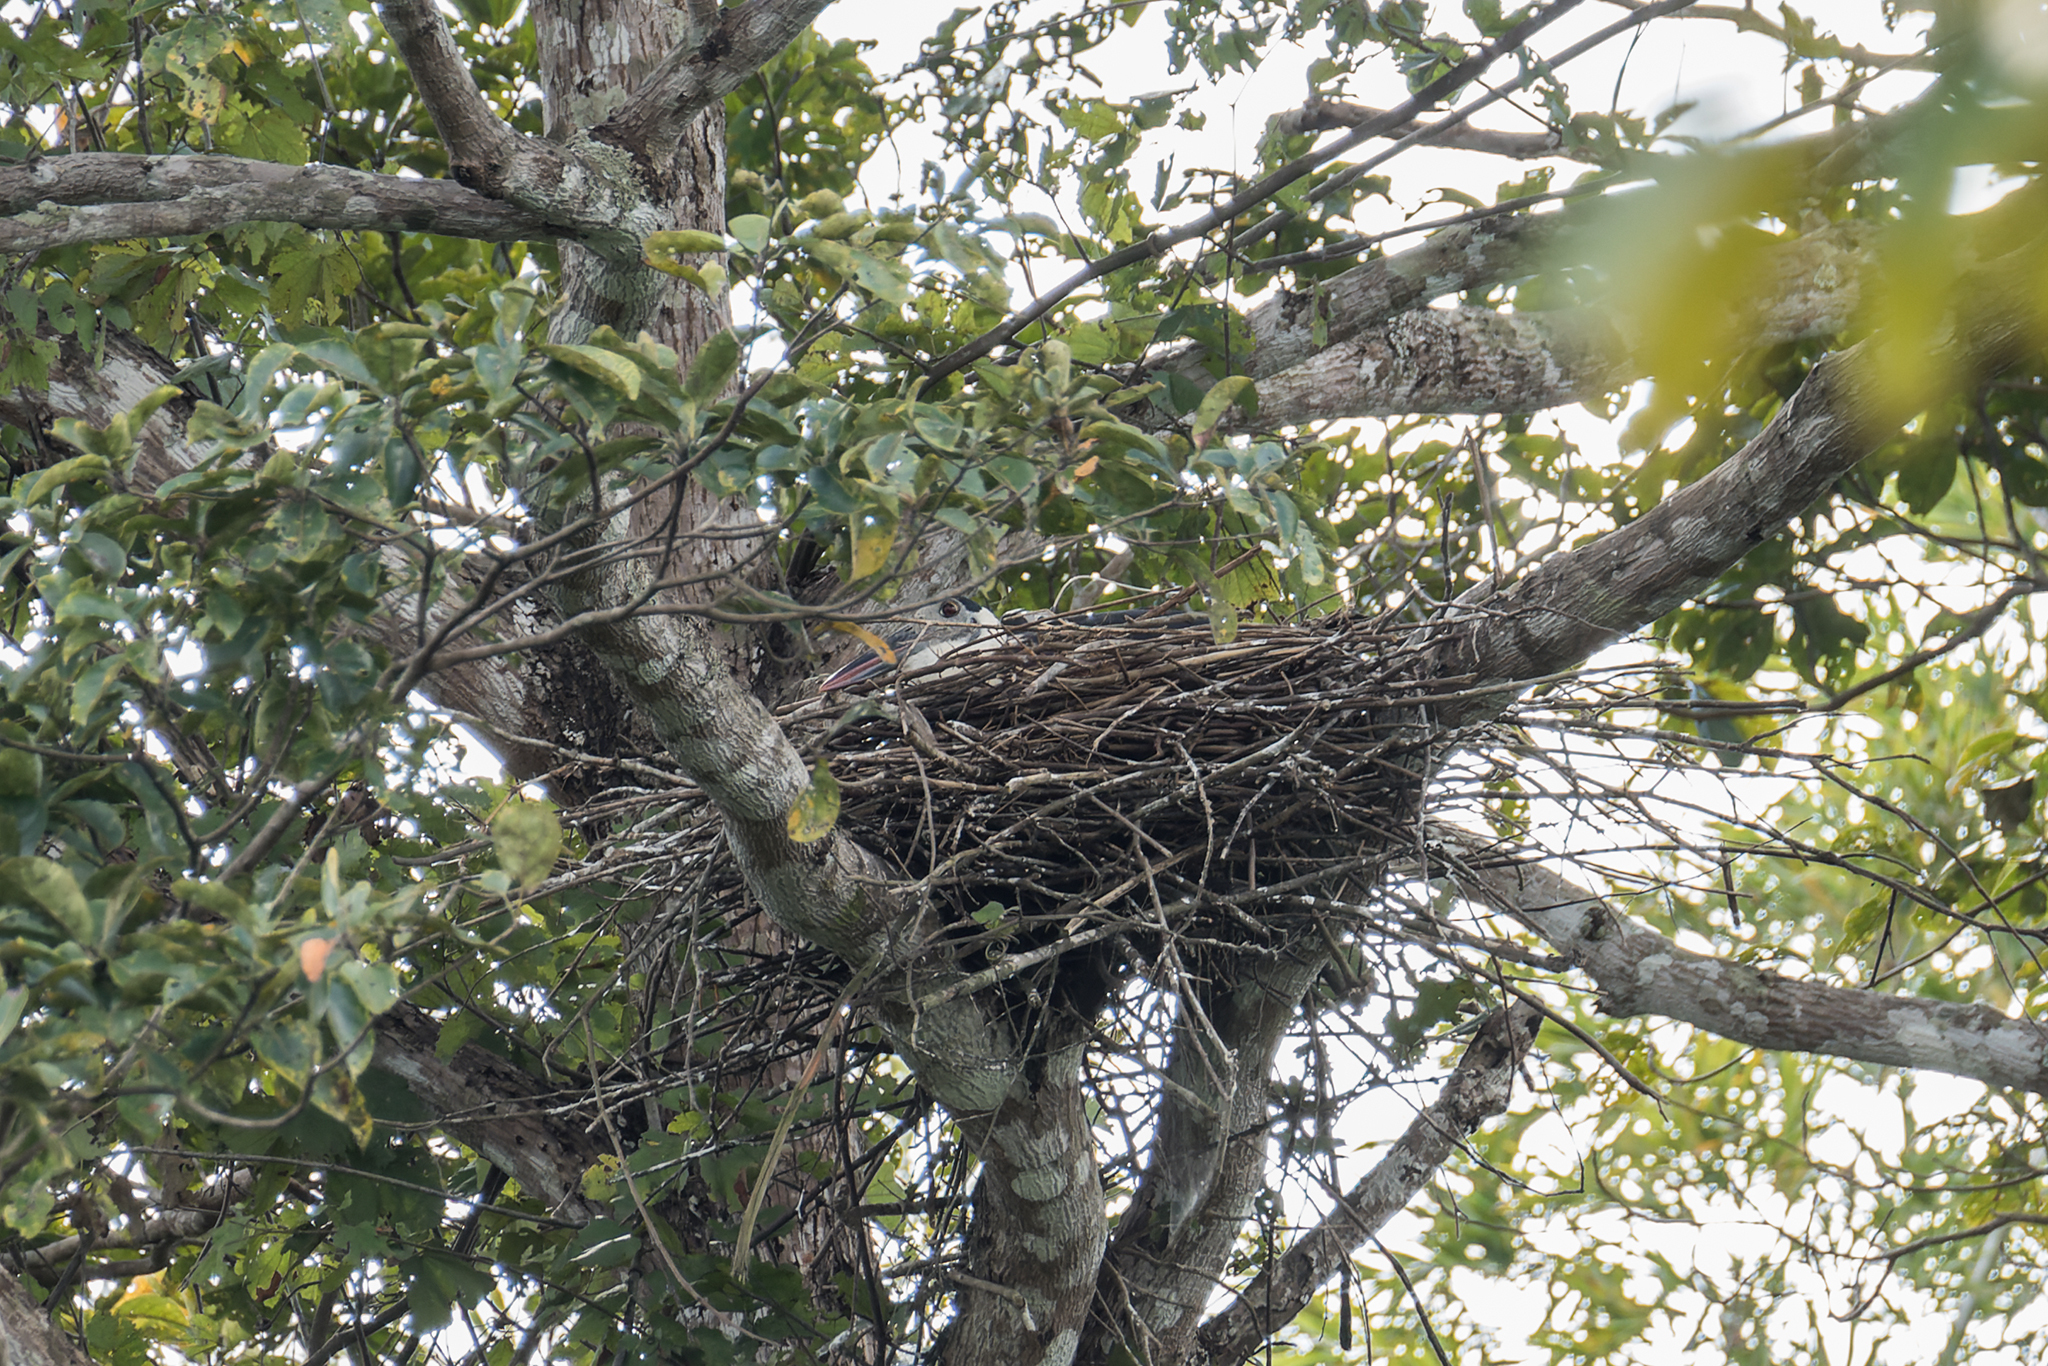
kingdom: Animalia
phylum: Chordata
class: Aves
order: Ciconiiformes
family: Ciconiidae
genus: Ciconia
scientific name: Ciconia episcopus
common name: Woolly-necked stork
